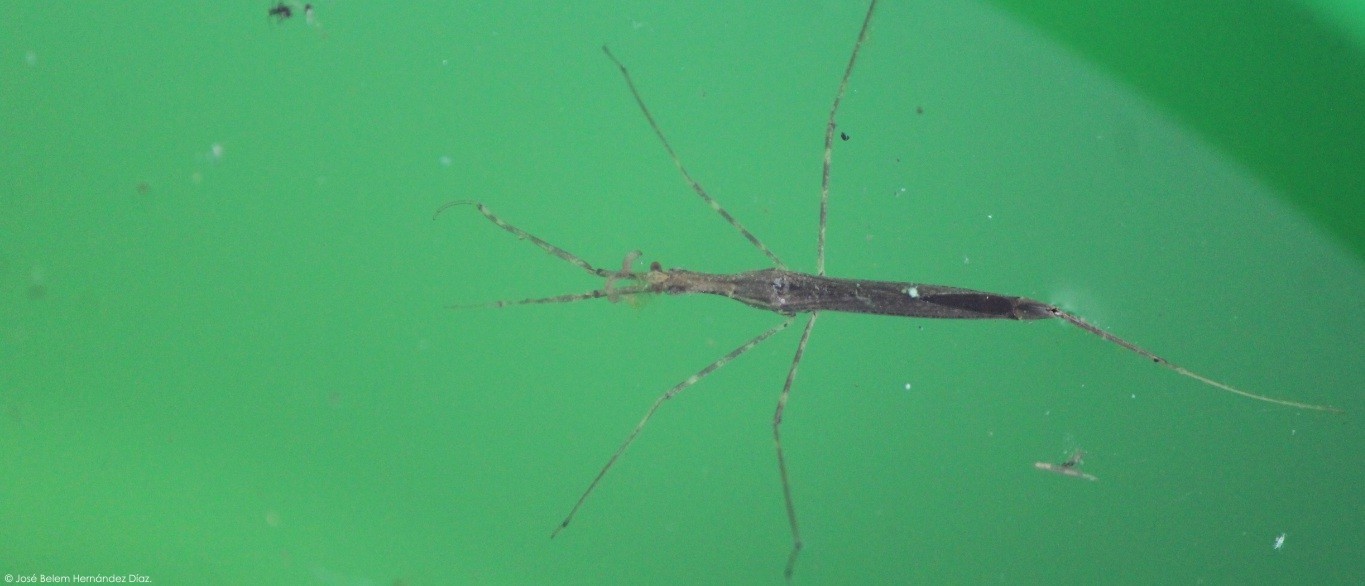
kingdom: Animalia
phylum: Arthropoda
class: Insecta
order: Hemiptera
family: Nepidae
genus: Ranatra
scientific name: Ranatra
